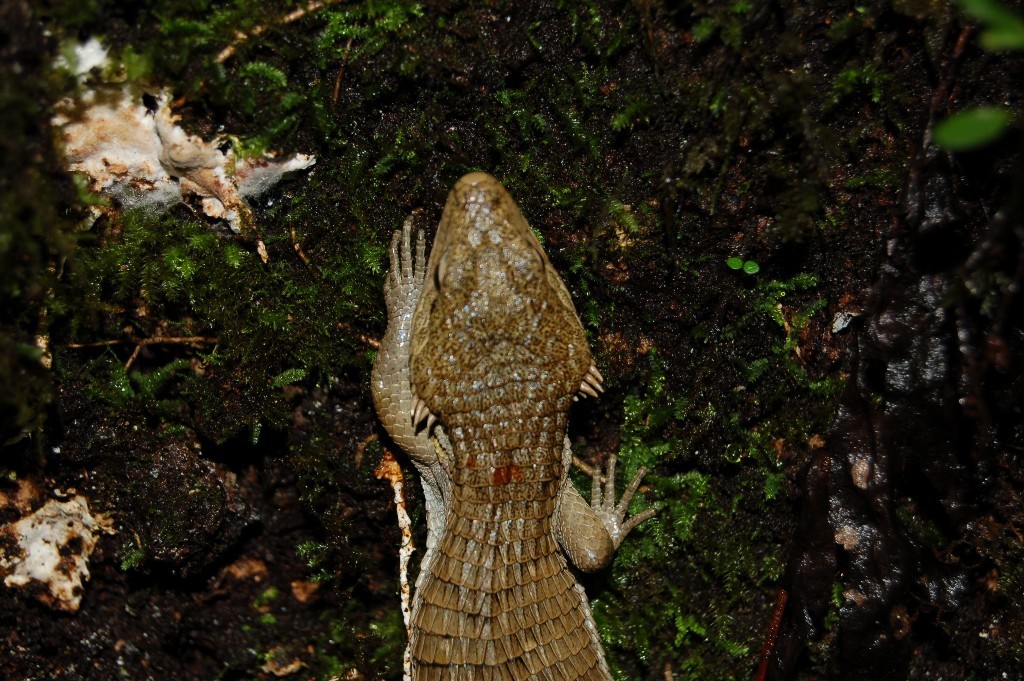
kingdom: Animalia
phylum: Chordata
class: Squamata
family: Anguidae
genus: Abronia
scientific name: Abronia lythrochila
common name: Red-lipped arboreal alligator lizard
